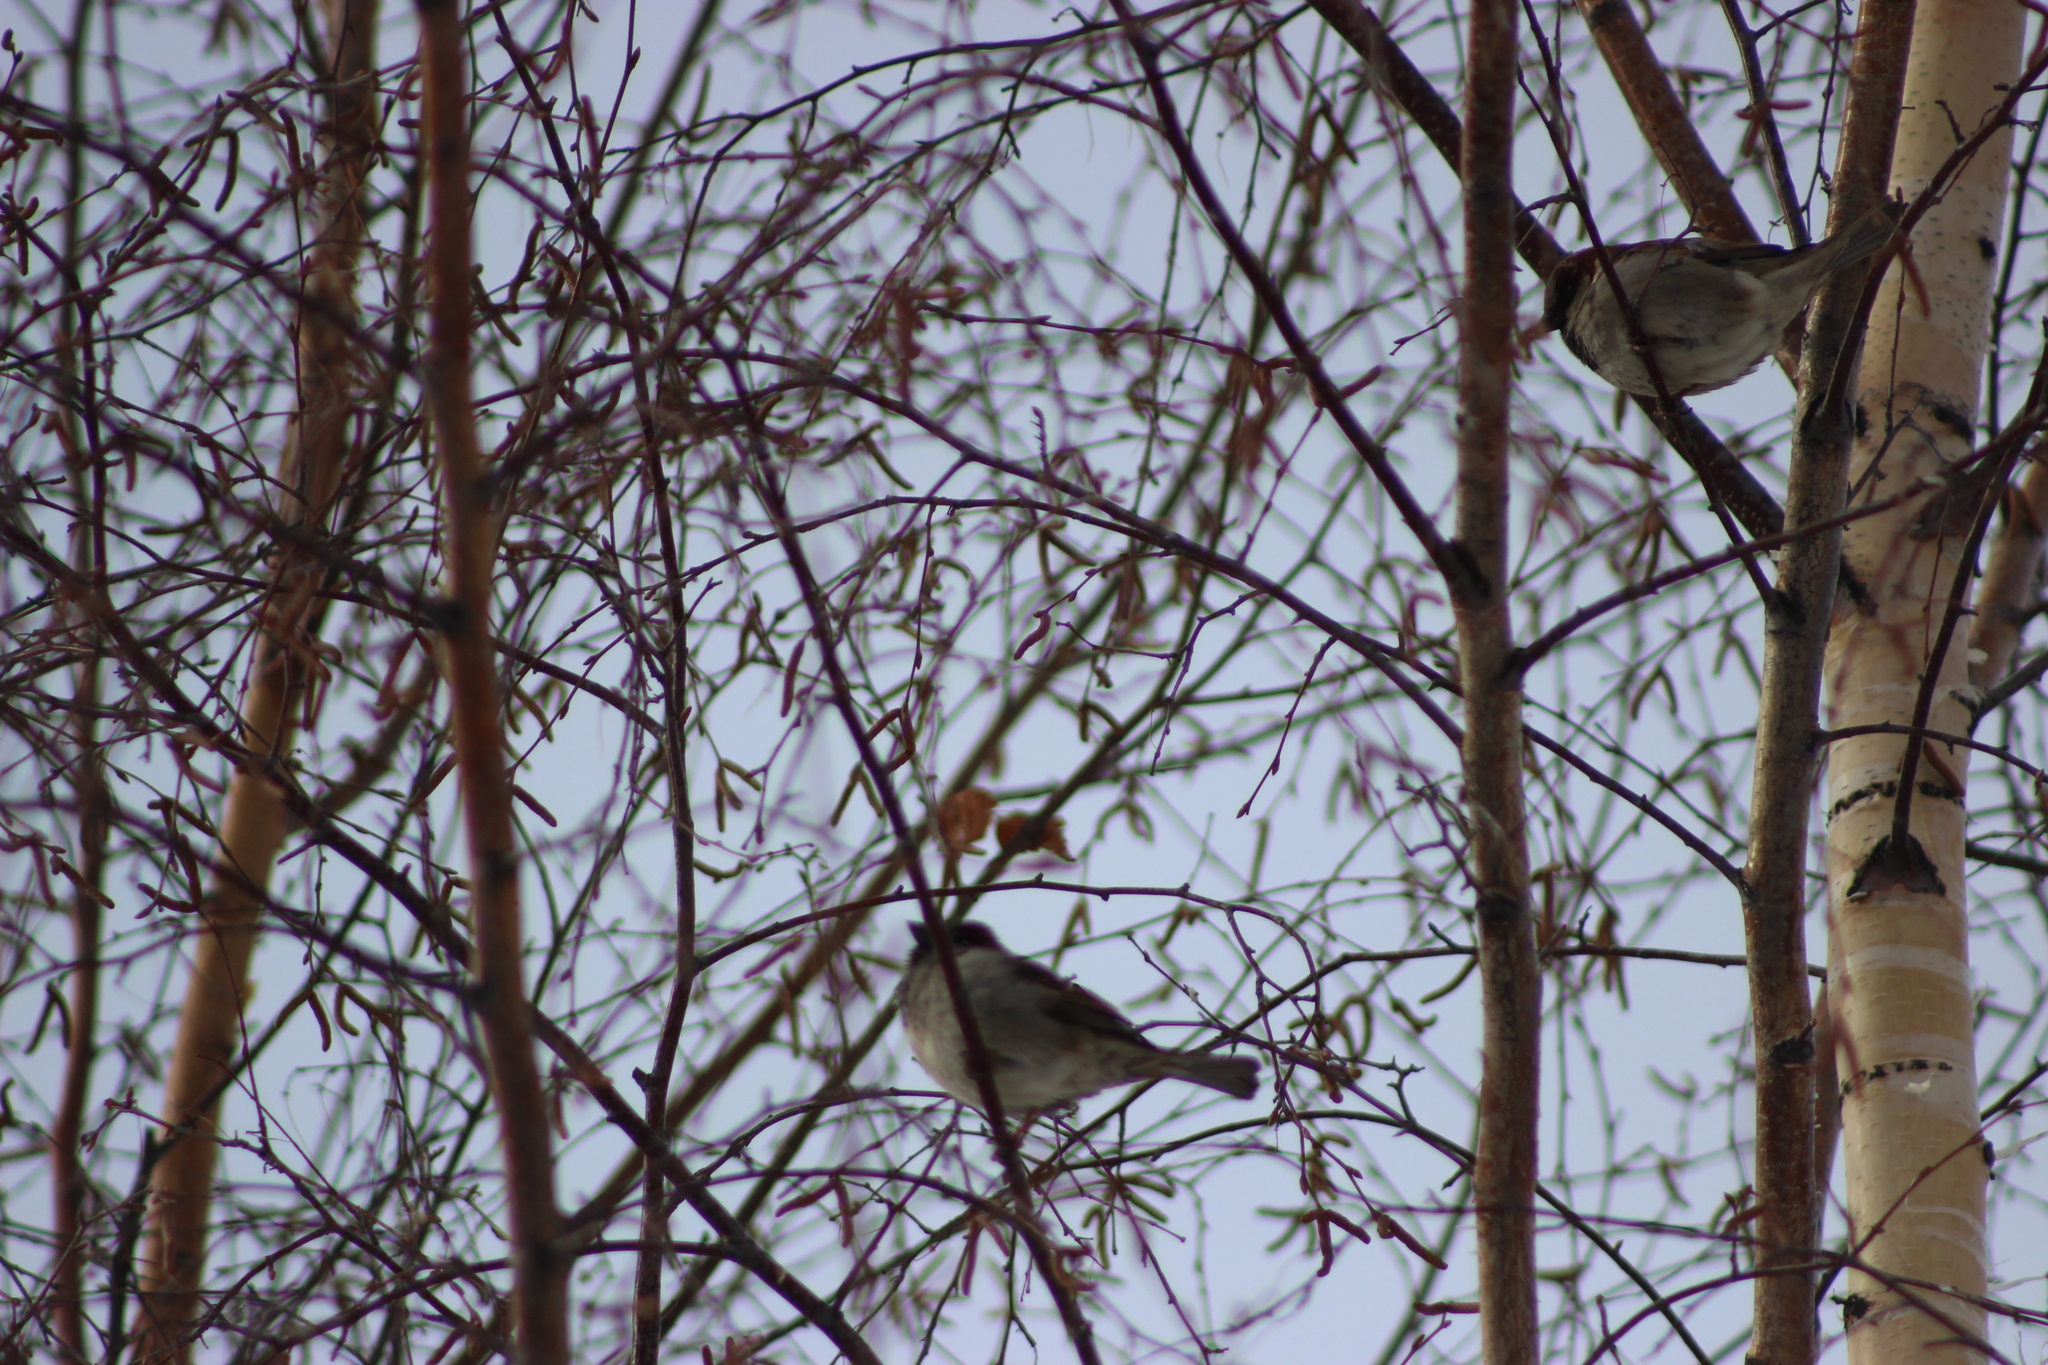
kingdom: Animalia
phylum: Chordata
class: Aves
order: Passeriformes
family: Passeridae
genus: Passer
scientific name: Passer domesticus
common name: House sparrow
